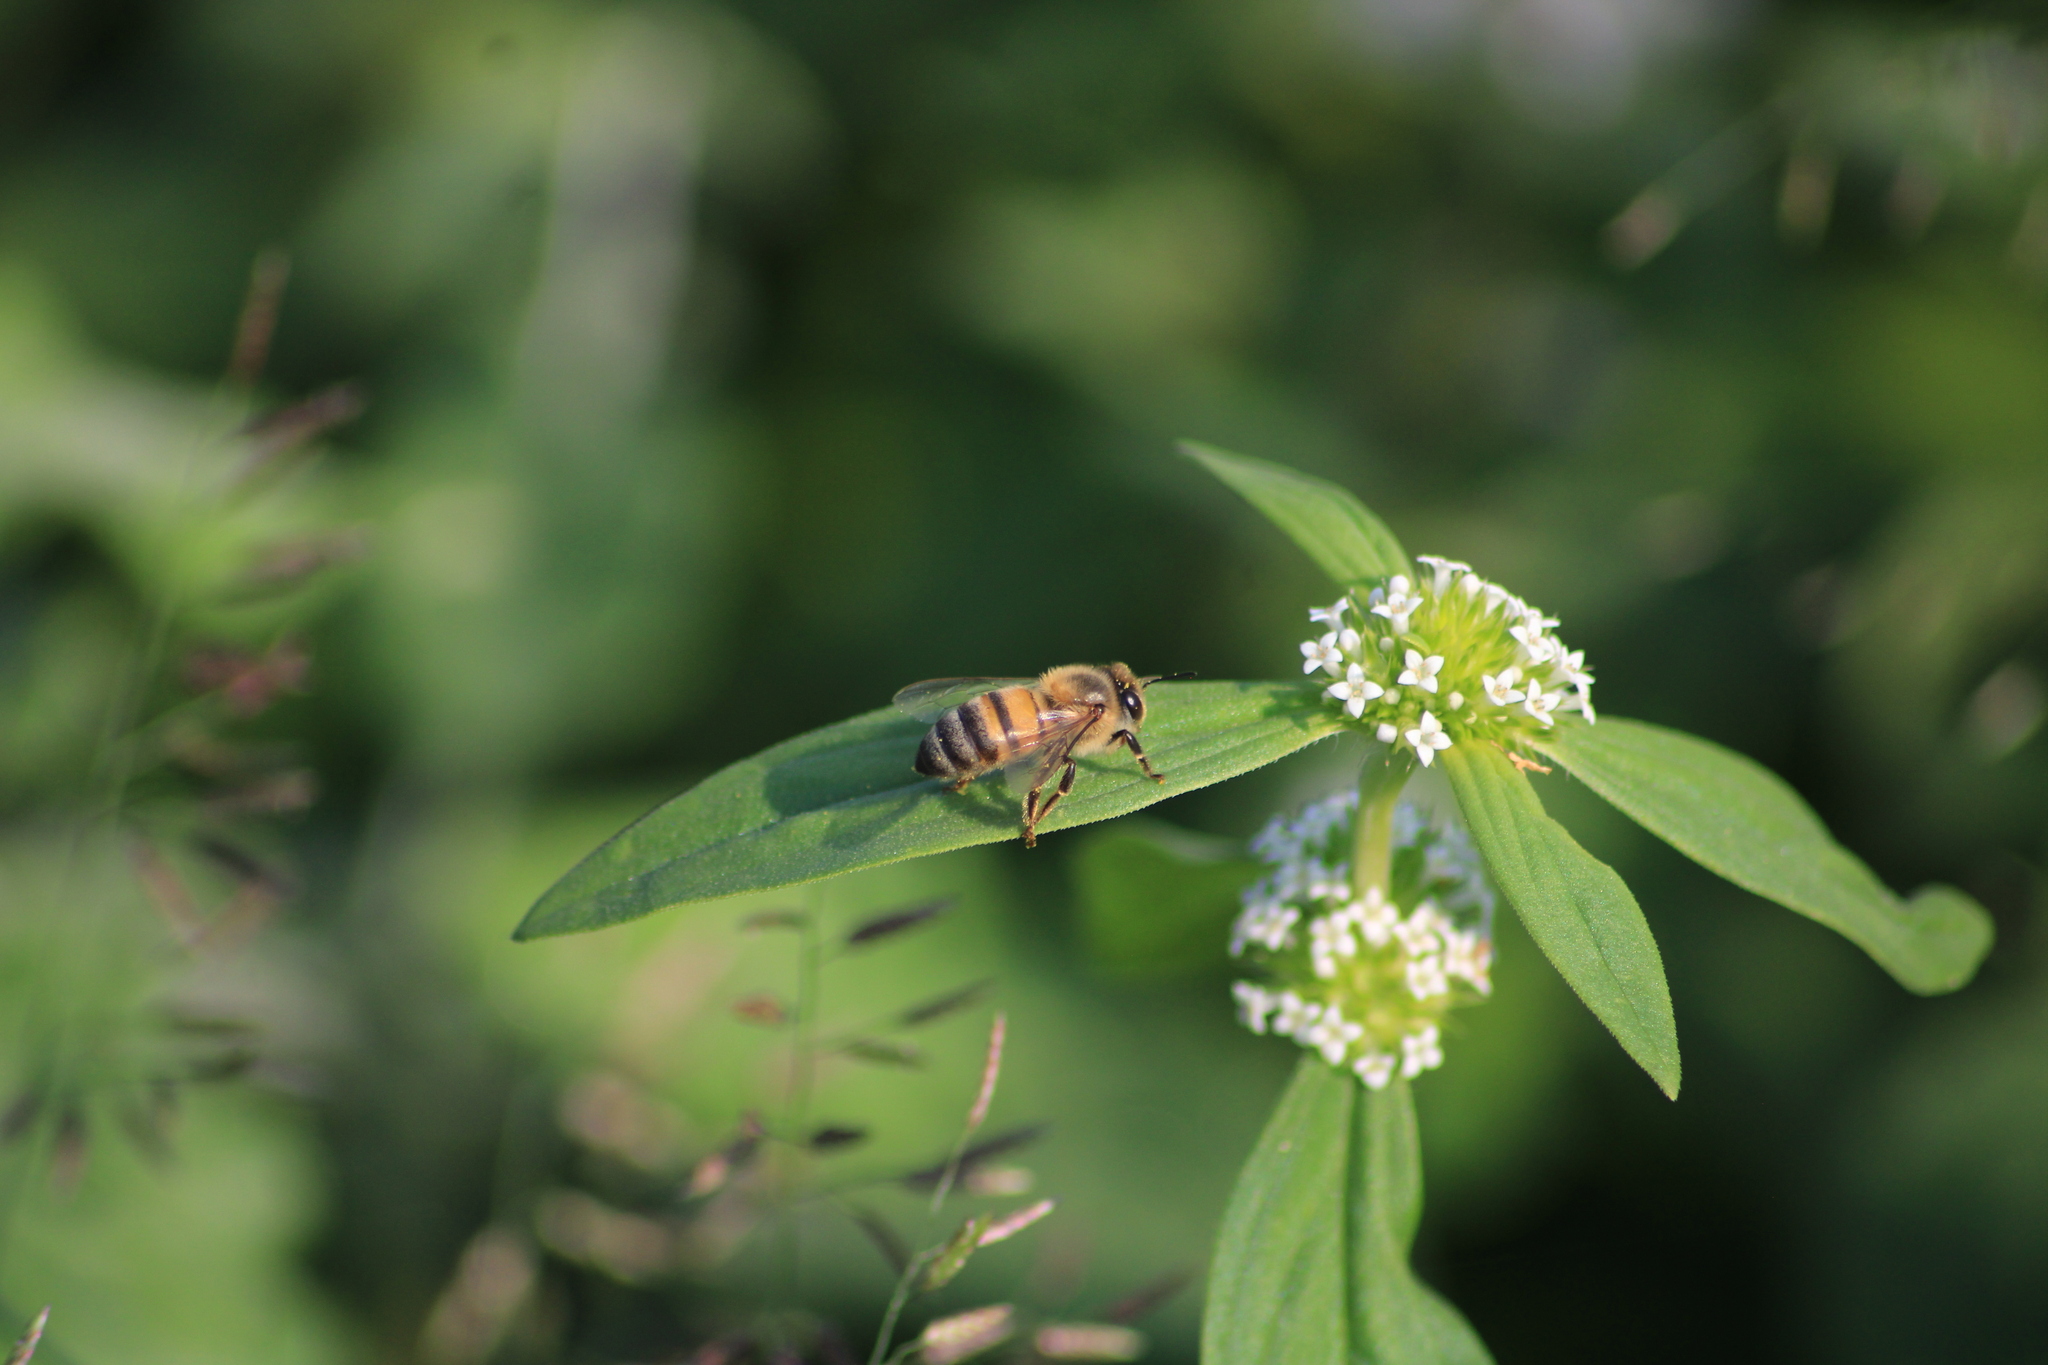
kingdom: Animalia
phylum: Arthropoda
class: Insecta
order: Hymenoptera
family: Apidae
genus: Apis
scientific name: Apis mellifera
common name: Honey bee
